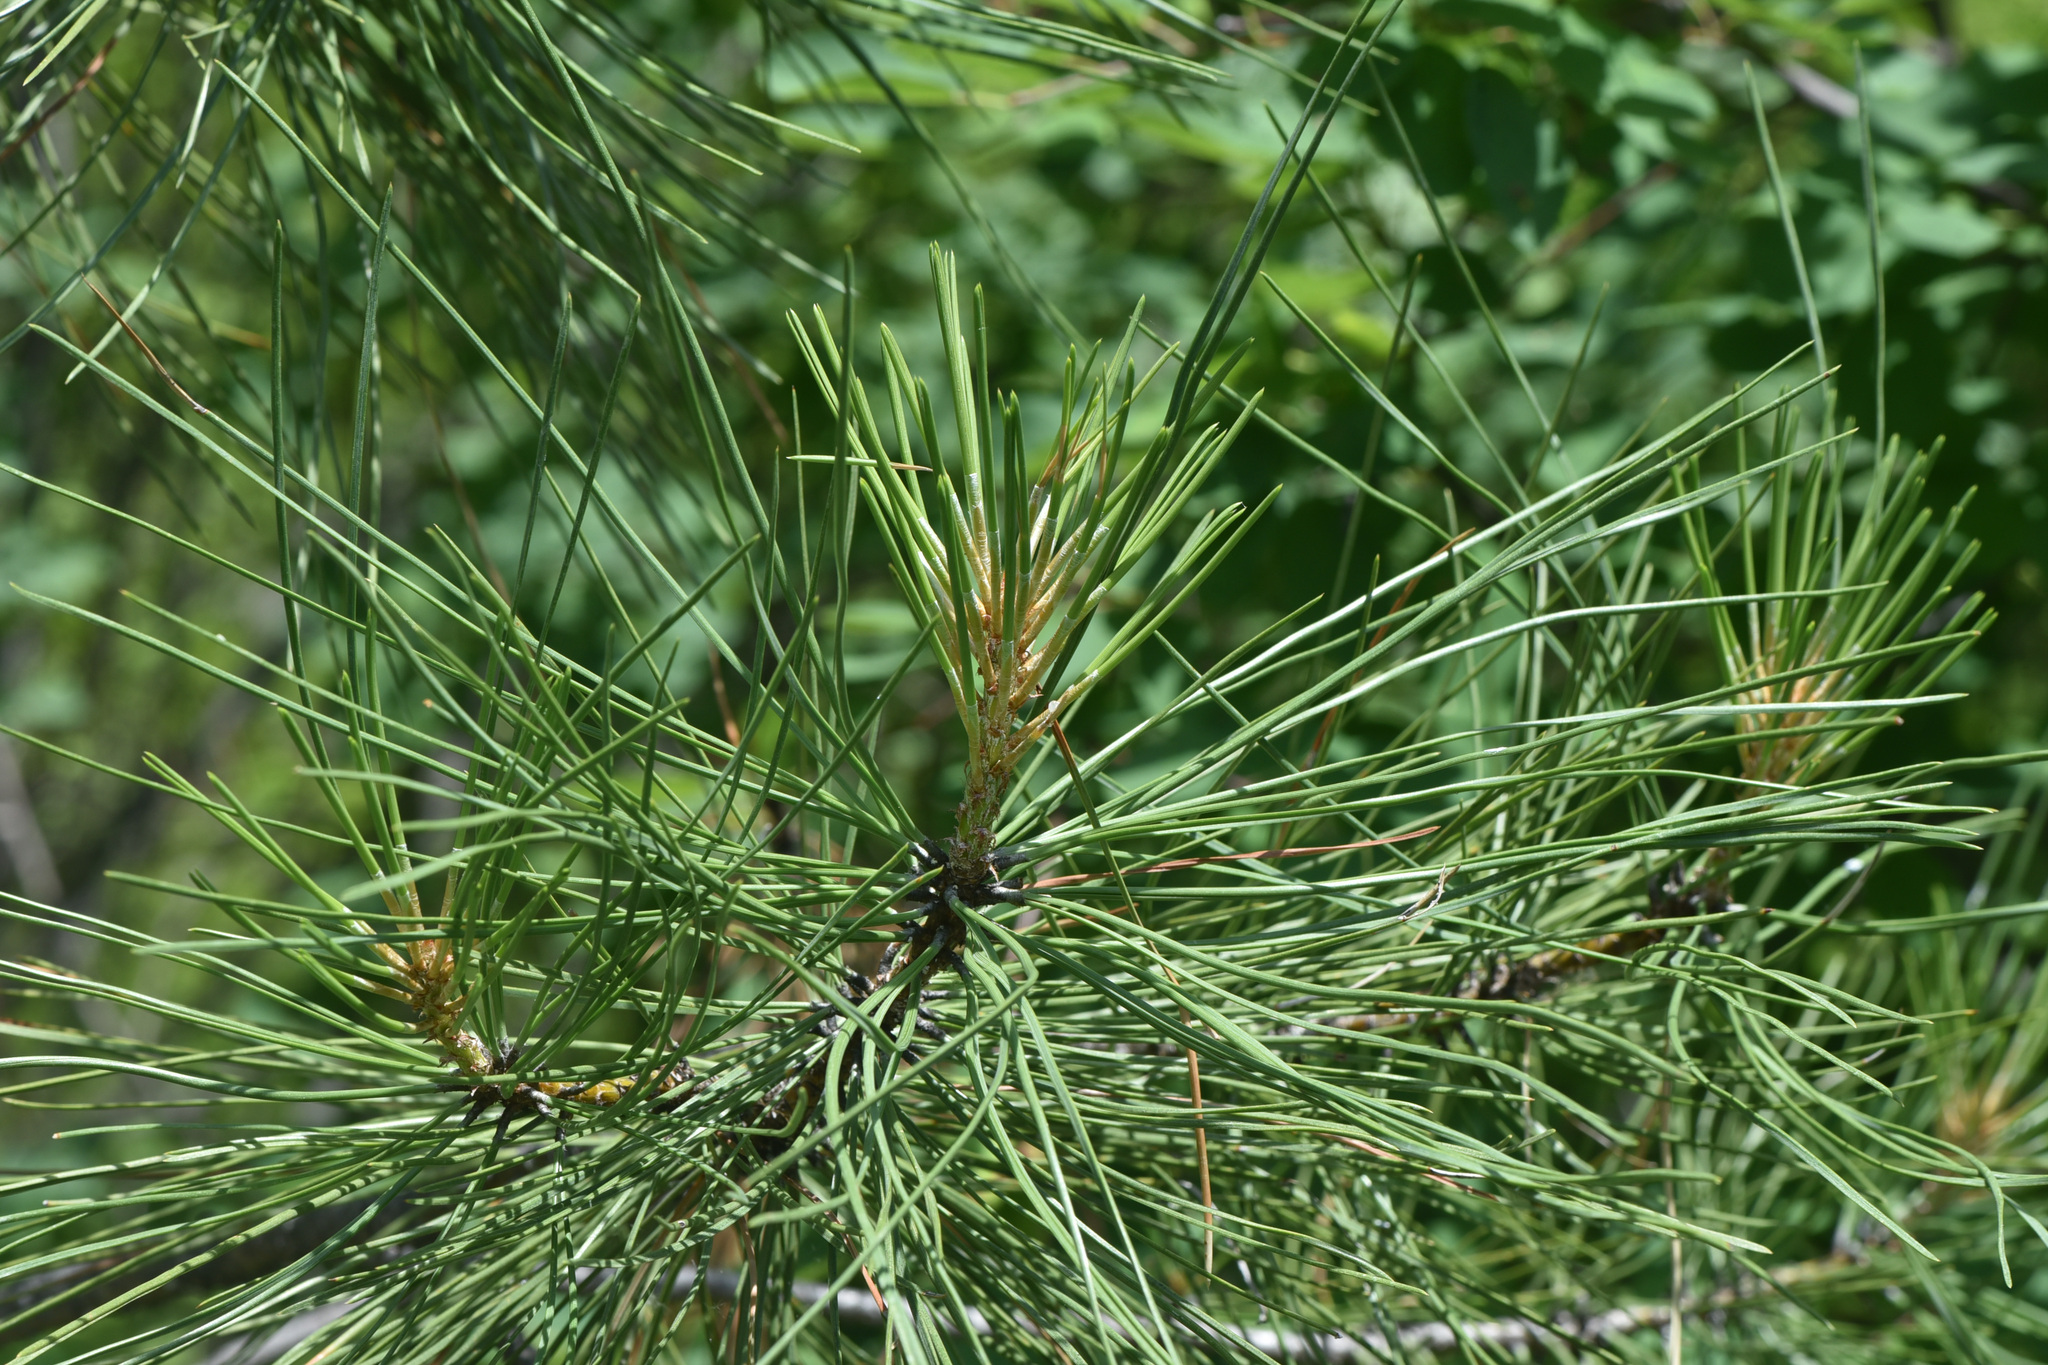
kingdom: Plantae
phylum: Tracheophyta
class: Pinopsida
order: Pinales
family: Pinaceae
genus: Pinus
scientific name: Pinus ponderosa
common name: Western yellow-pine
